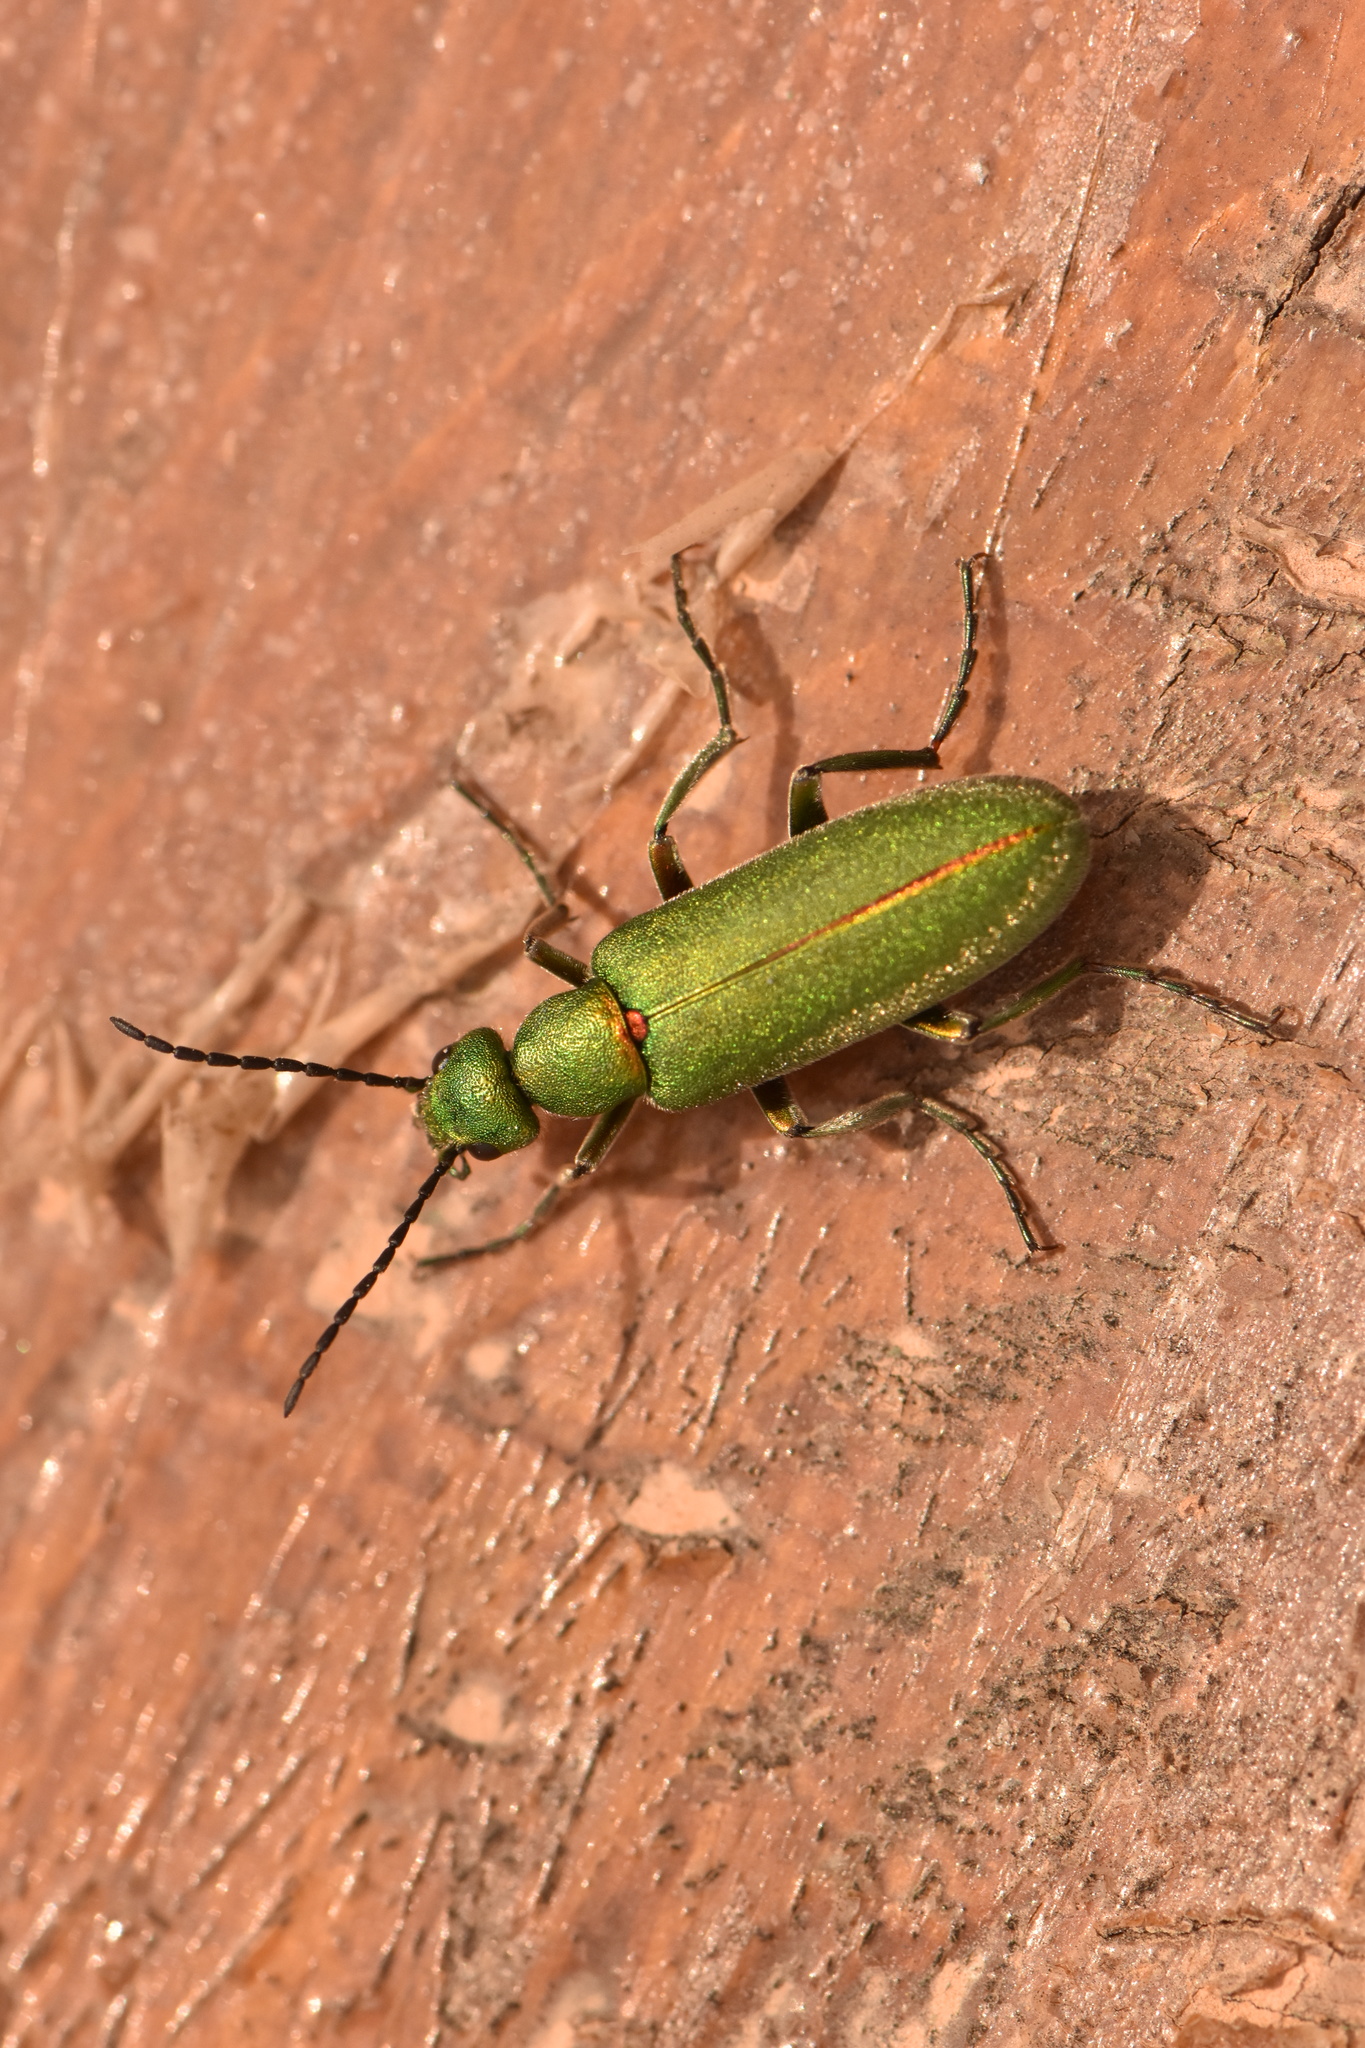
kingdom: Animalia
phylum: Arthropoda
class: Insecta
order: Coleoptera
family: Meloidae
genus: Lagorina
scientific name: Lagorina sericea
